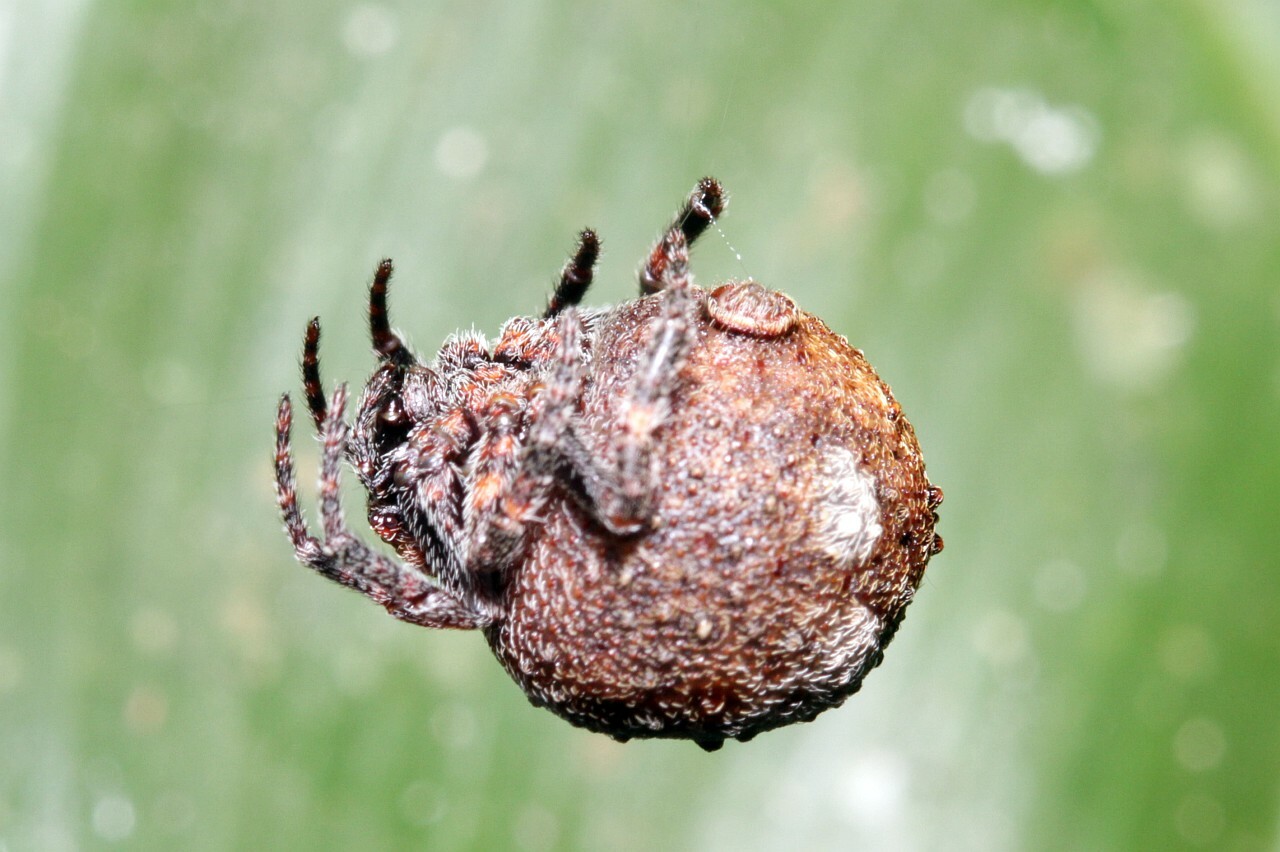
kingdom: Animalia
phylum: Arthropoda
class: Arachnida
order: Araneae
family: Araneidae
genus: Xylethrus
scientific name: Xylethrus scrupeus
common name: Orb weavers
